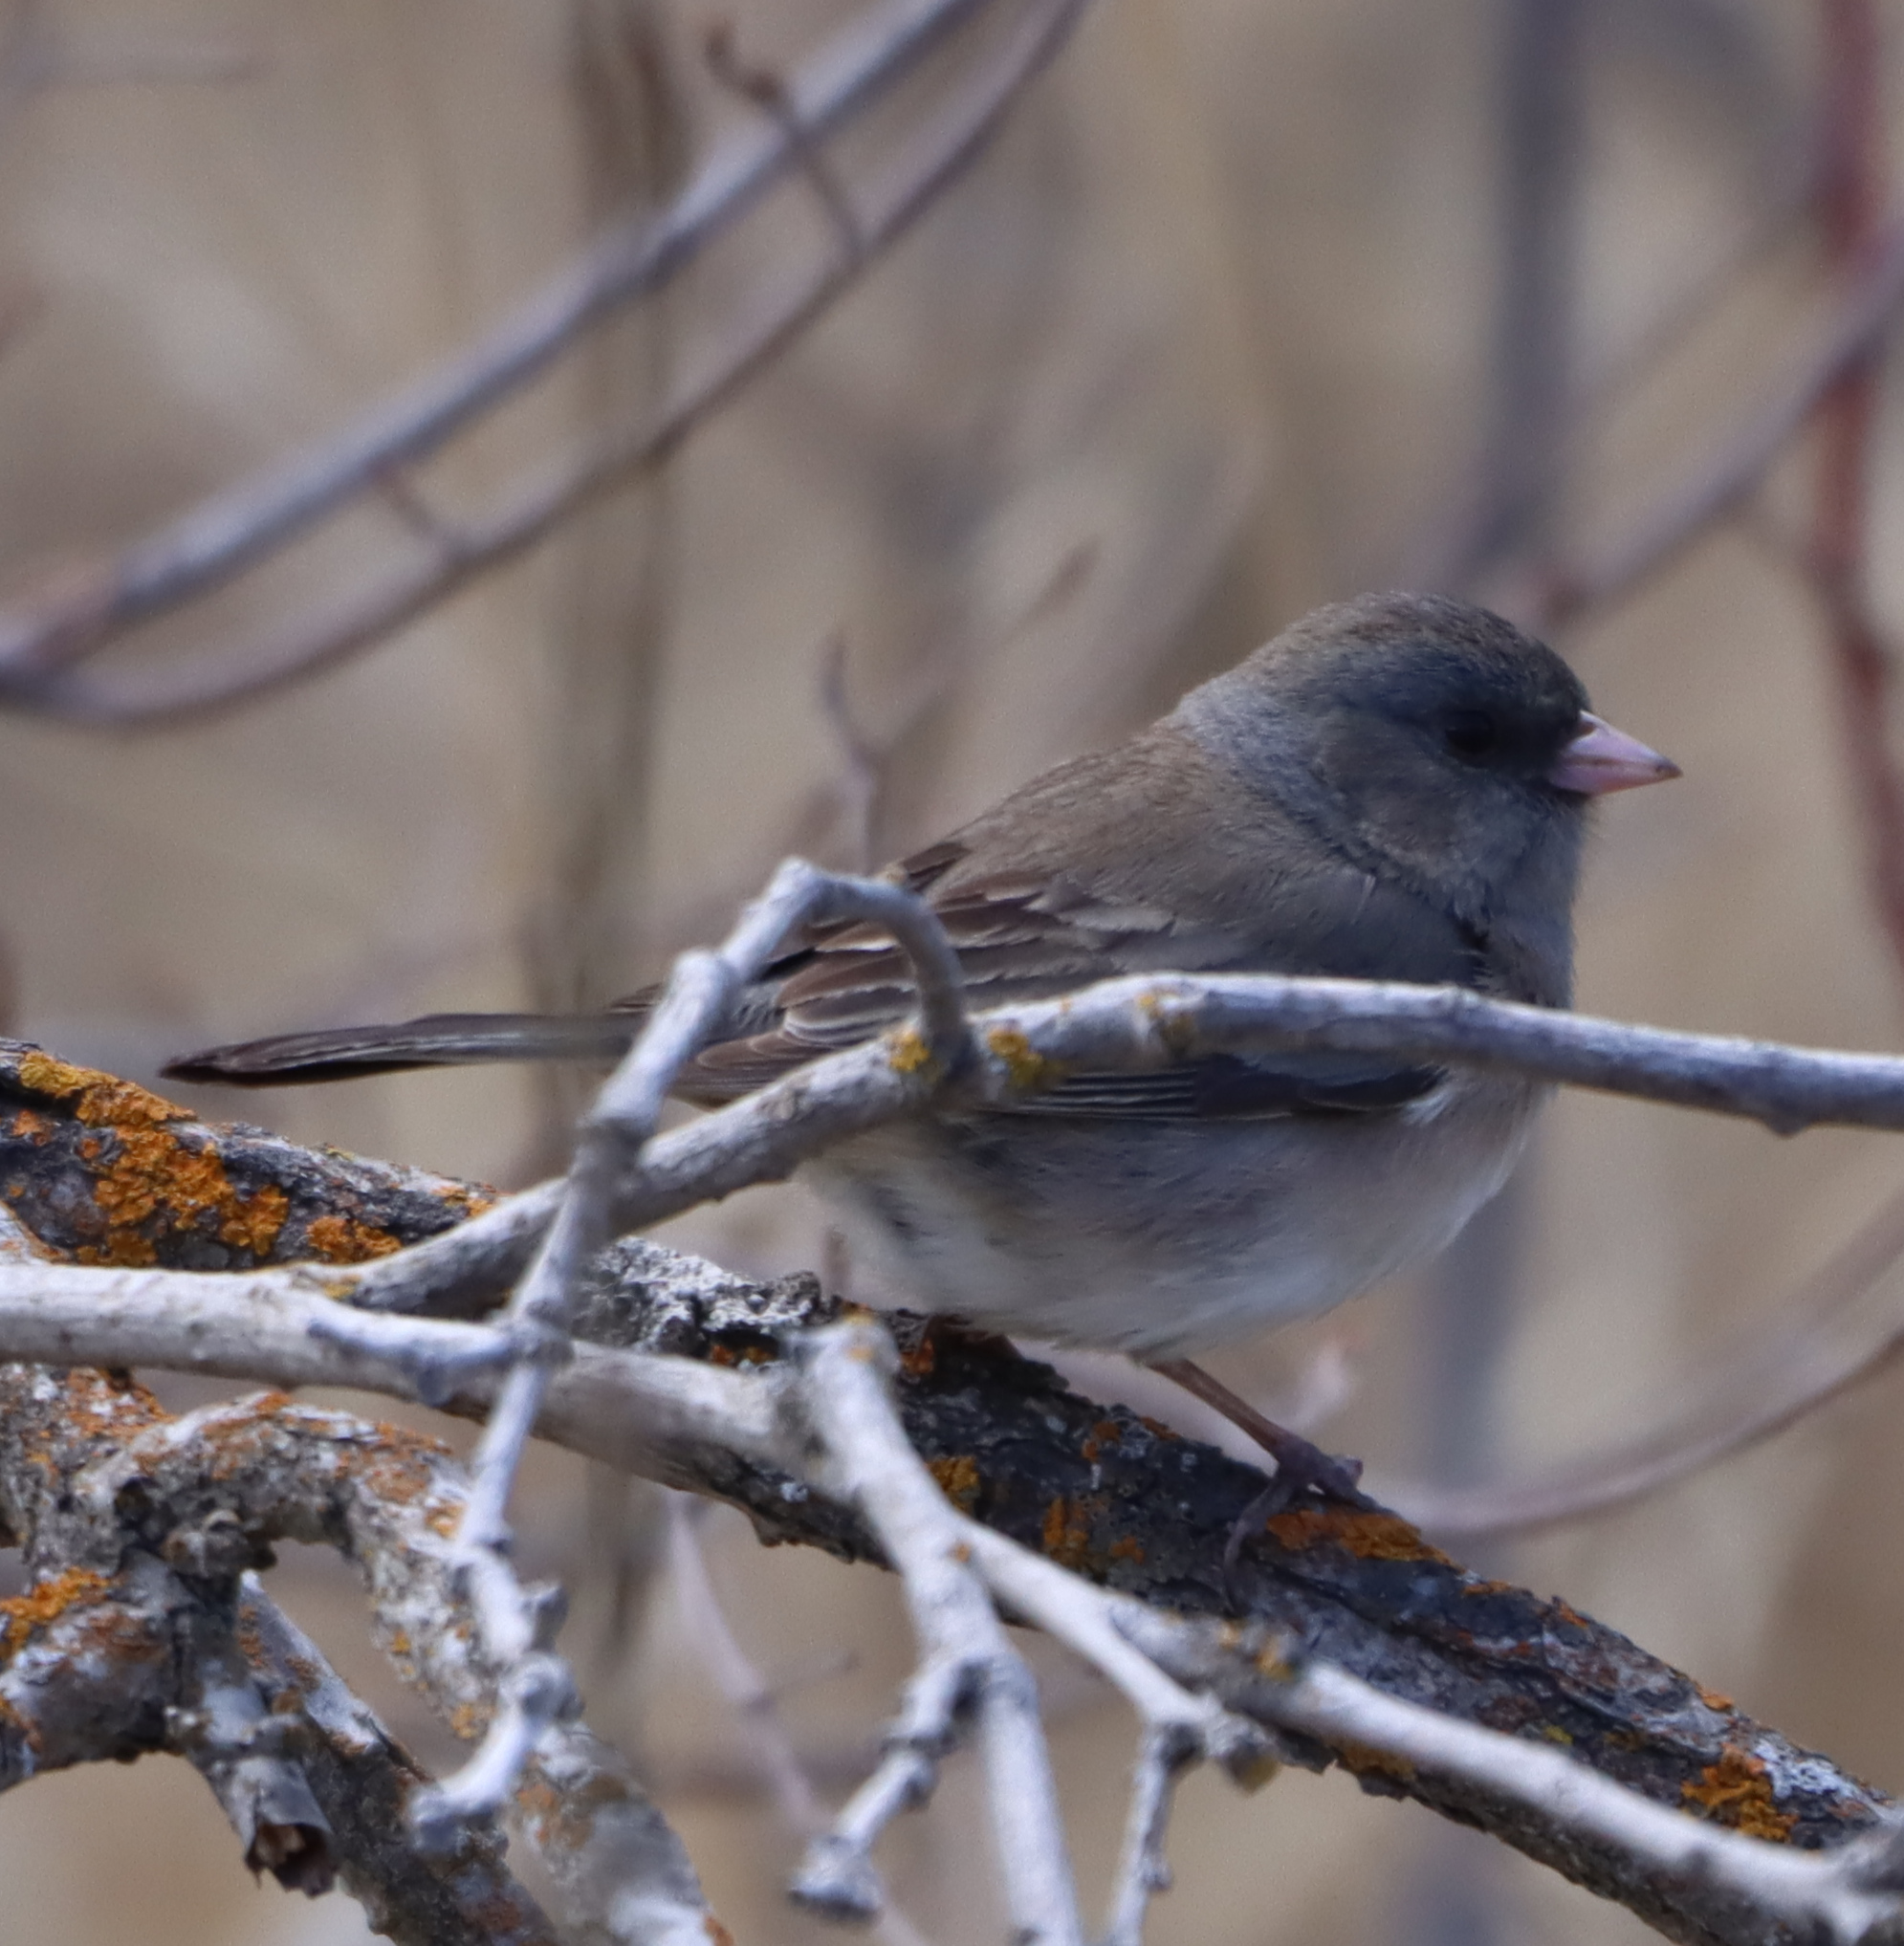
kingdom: Animalia
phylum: Chordata
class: Aves
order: Passeriformes
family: Passerellidae
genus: Junco
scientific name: Junco hyemalis
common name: Dark-eyed junco
